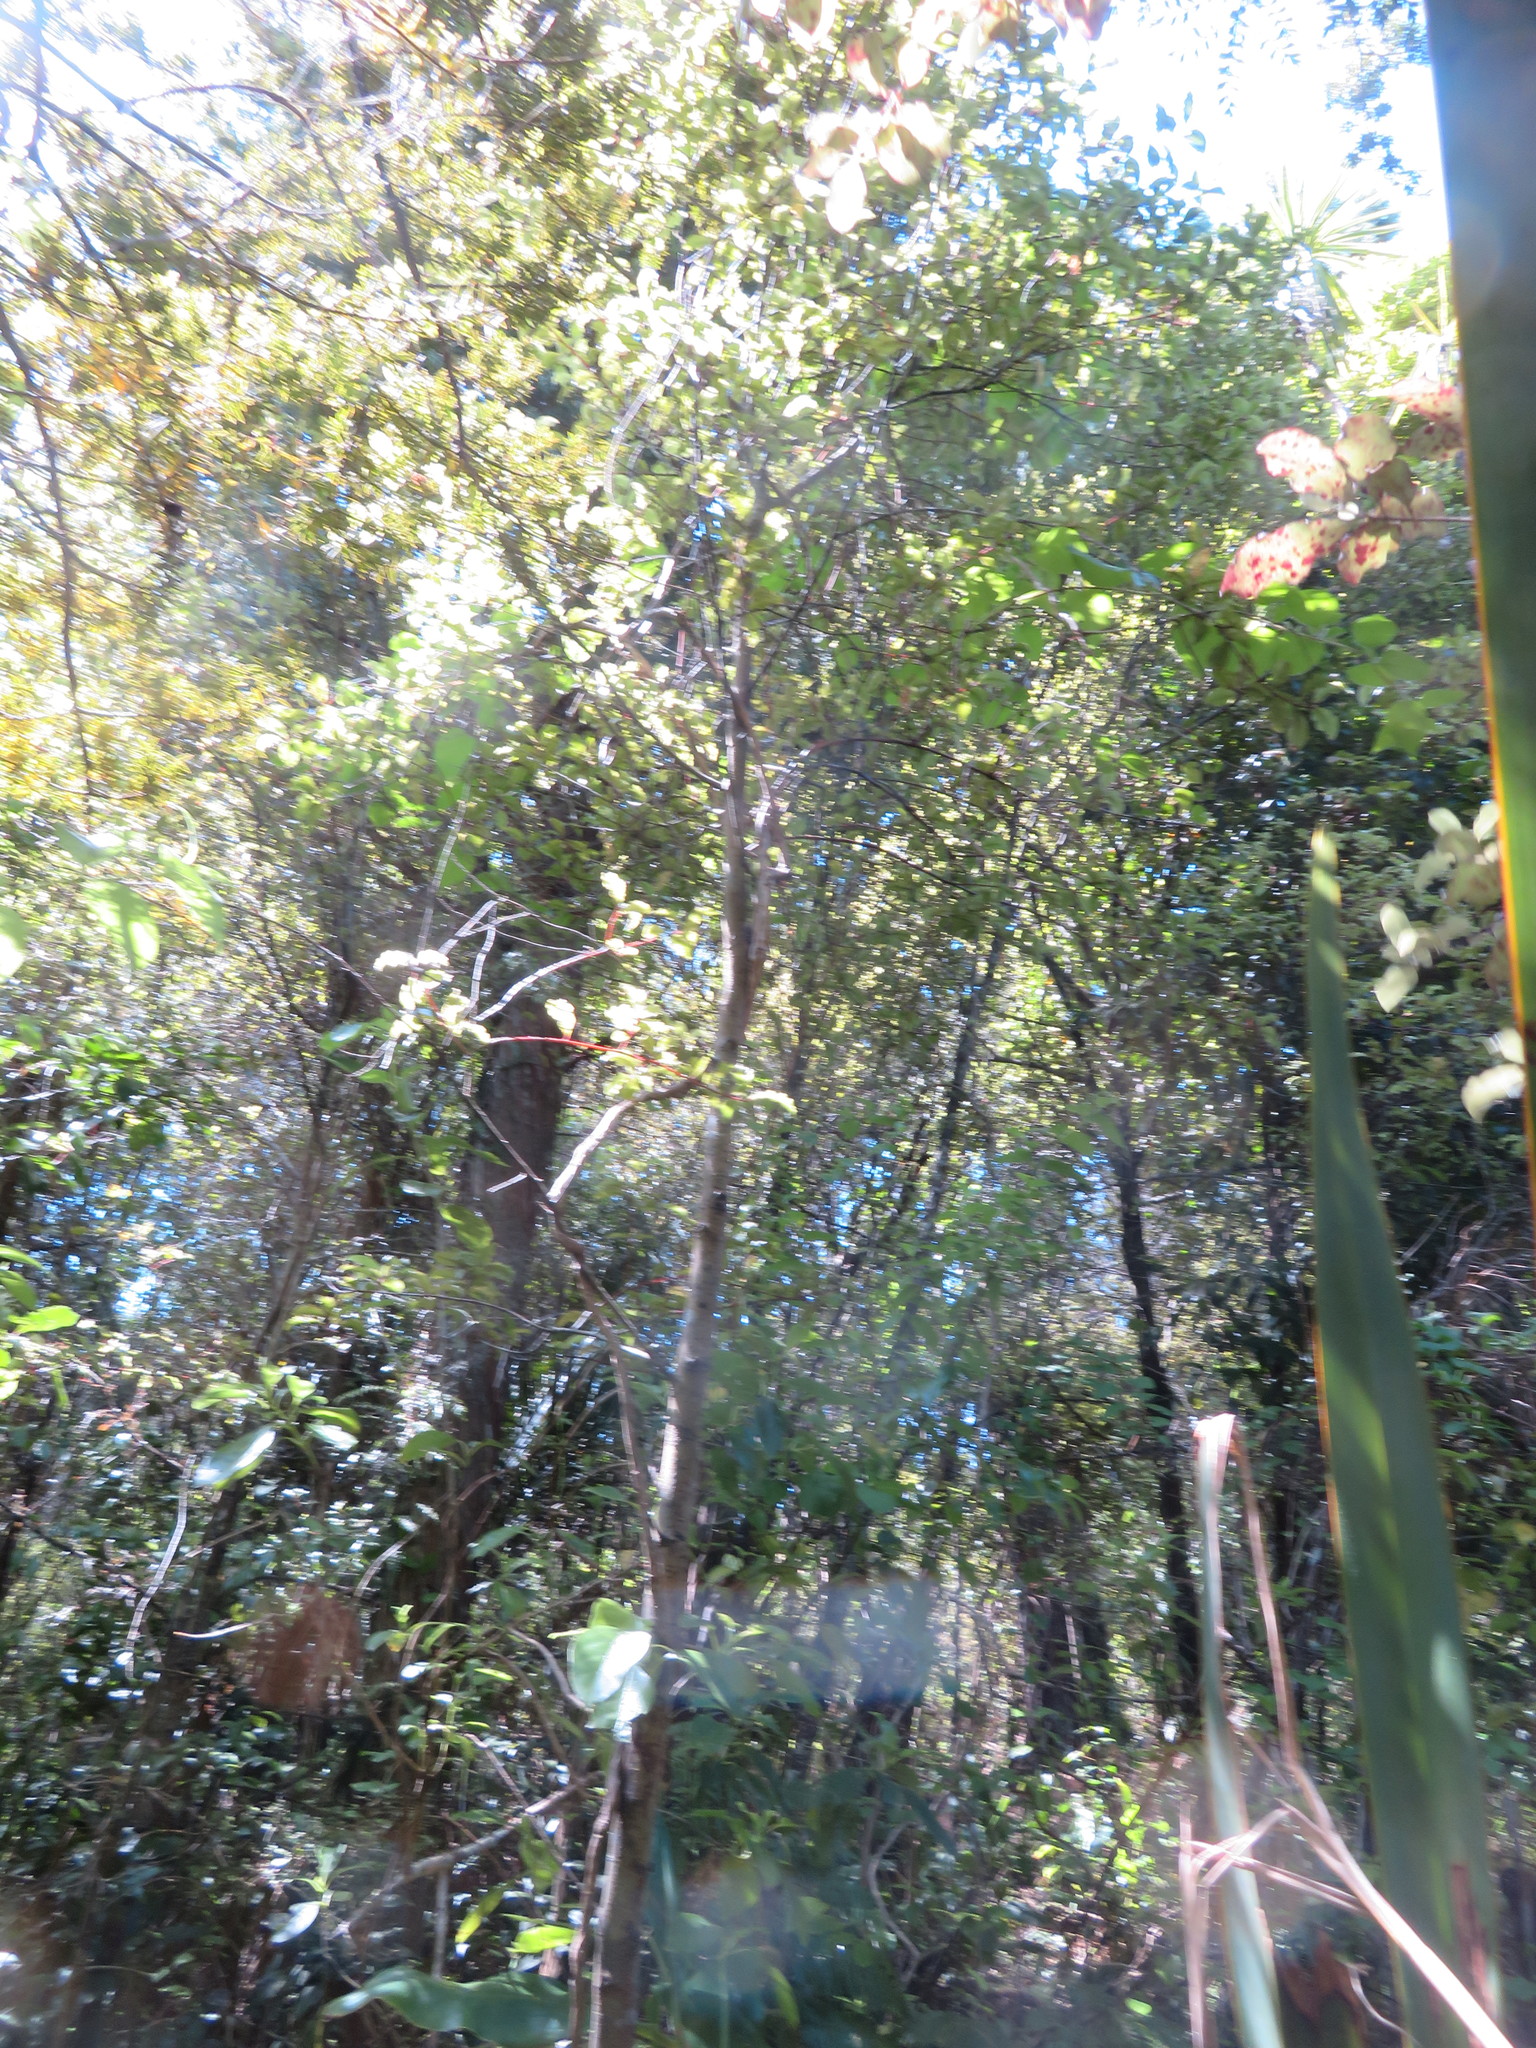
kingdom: Plantae
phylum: Tracheophyta
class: Magnoliopsida
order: Ericales
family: Primulaceae
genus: Myrsine
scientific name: Myrsine australis
